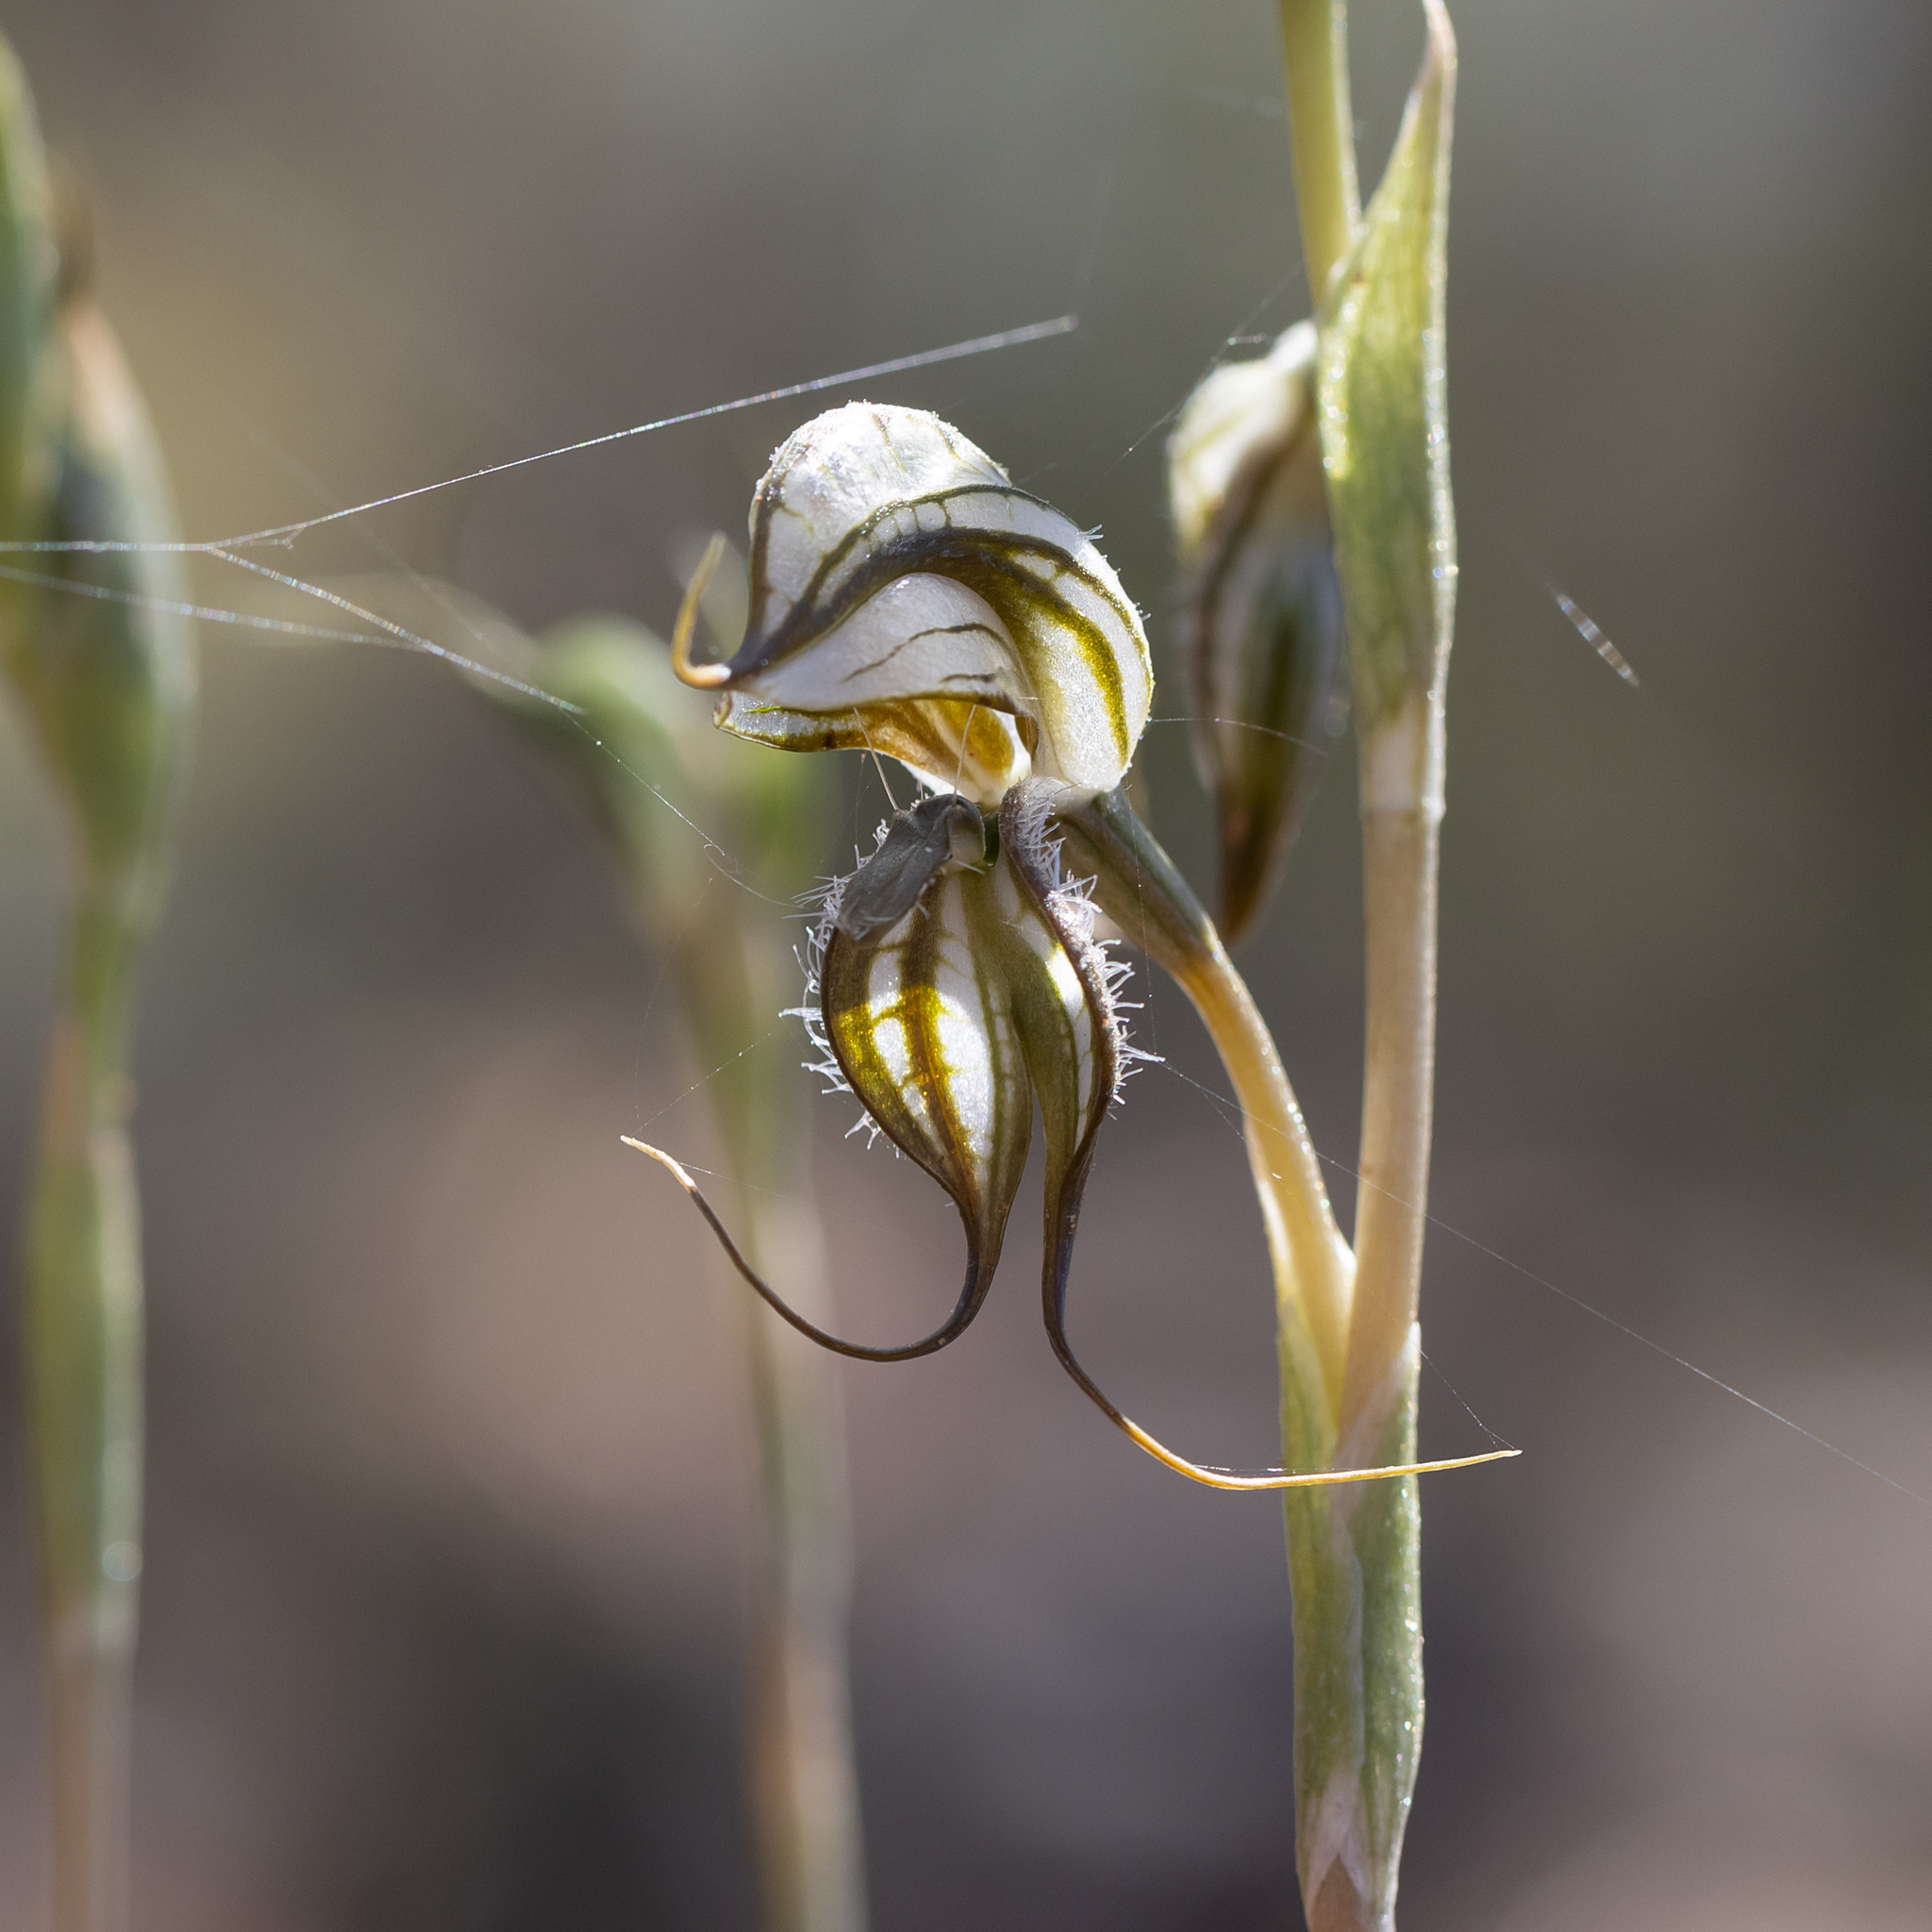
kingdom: Plantae
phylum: Tracheophyta
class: Liliopsida
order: Asparagales
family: Orchidaceae
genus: Pterostylis
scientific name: Pterostylis biseta
